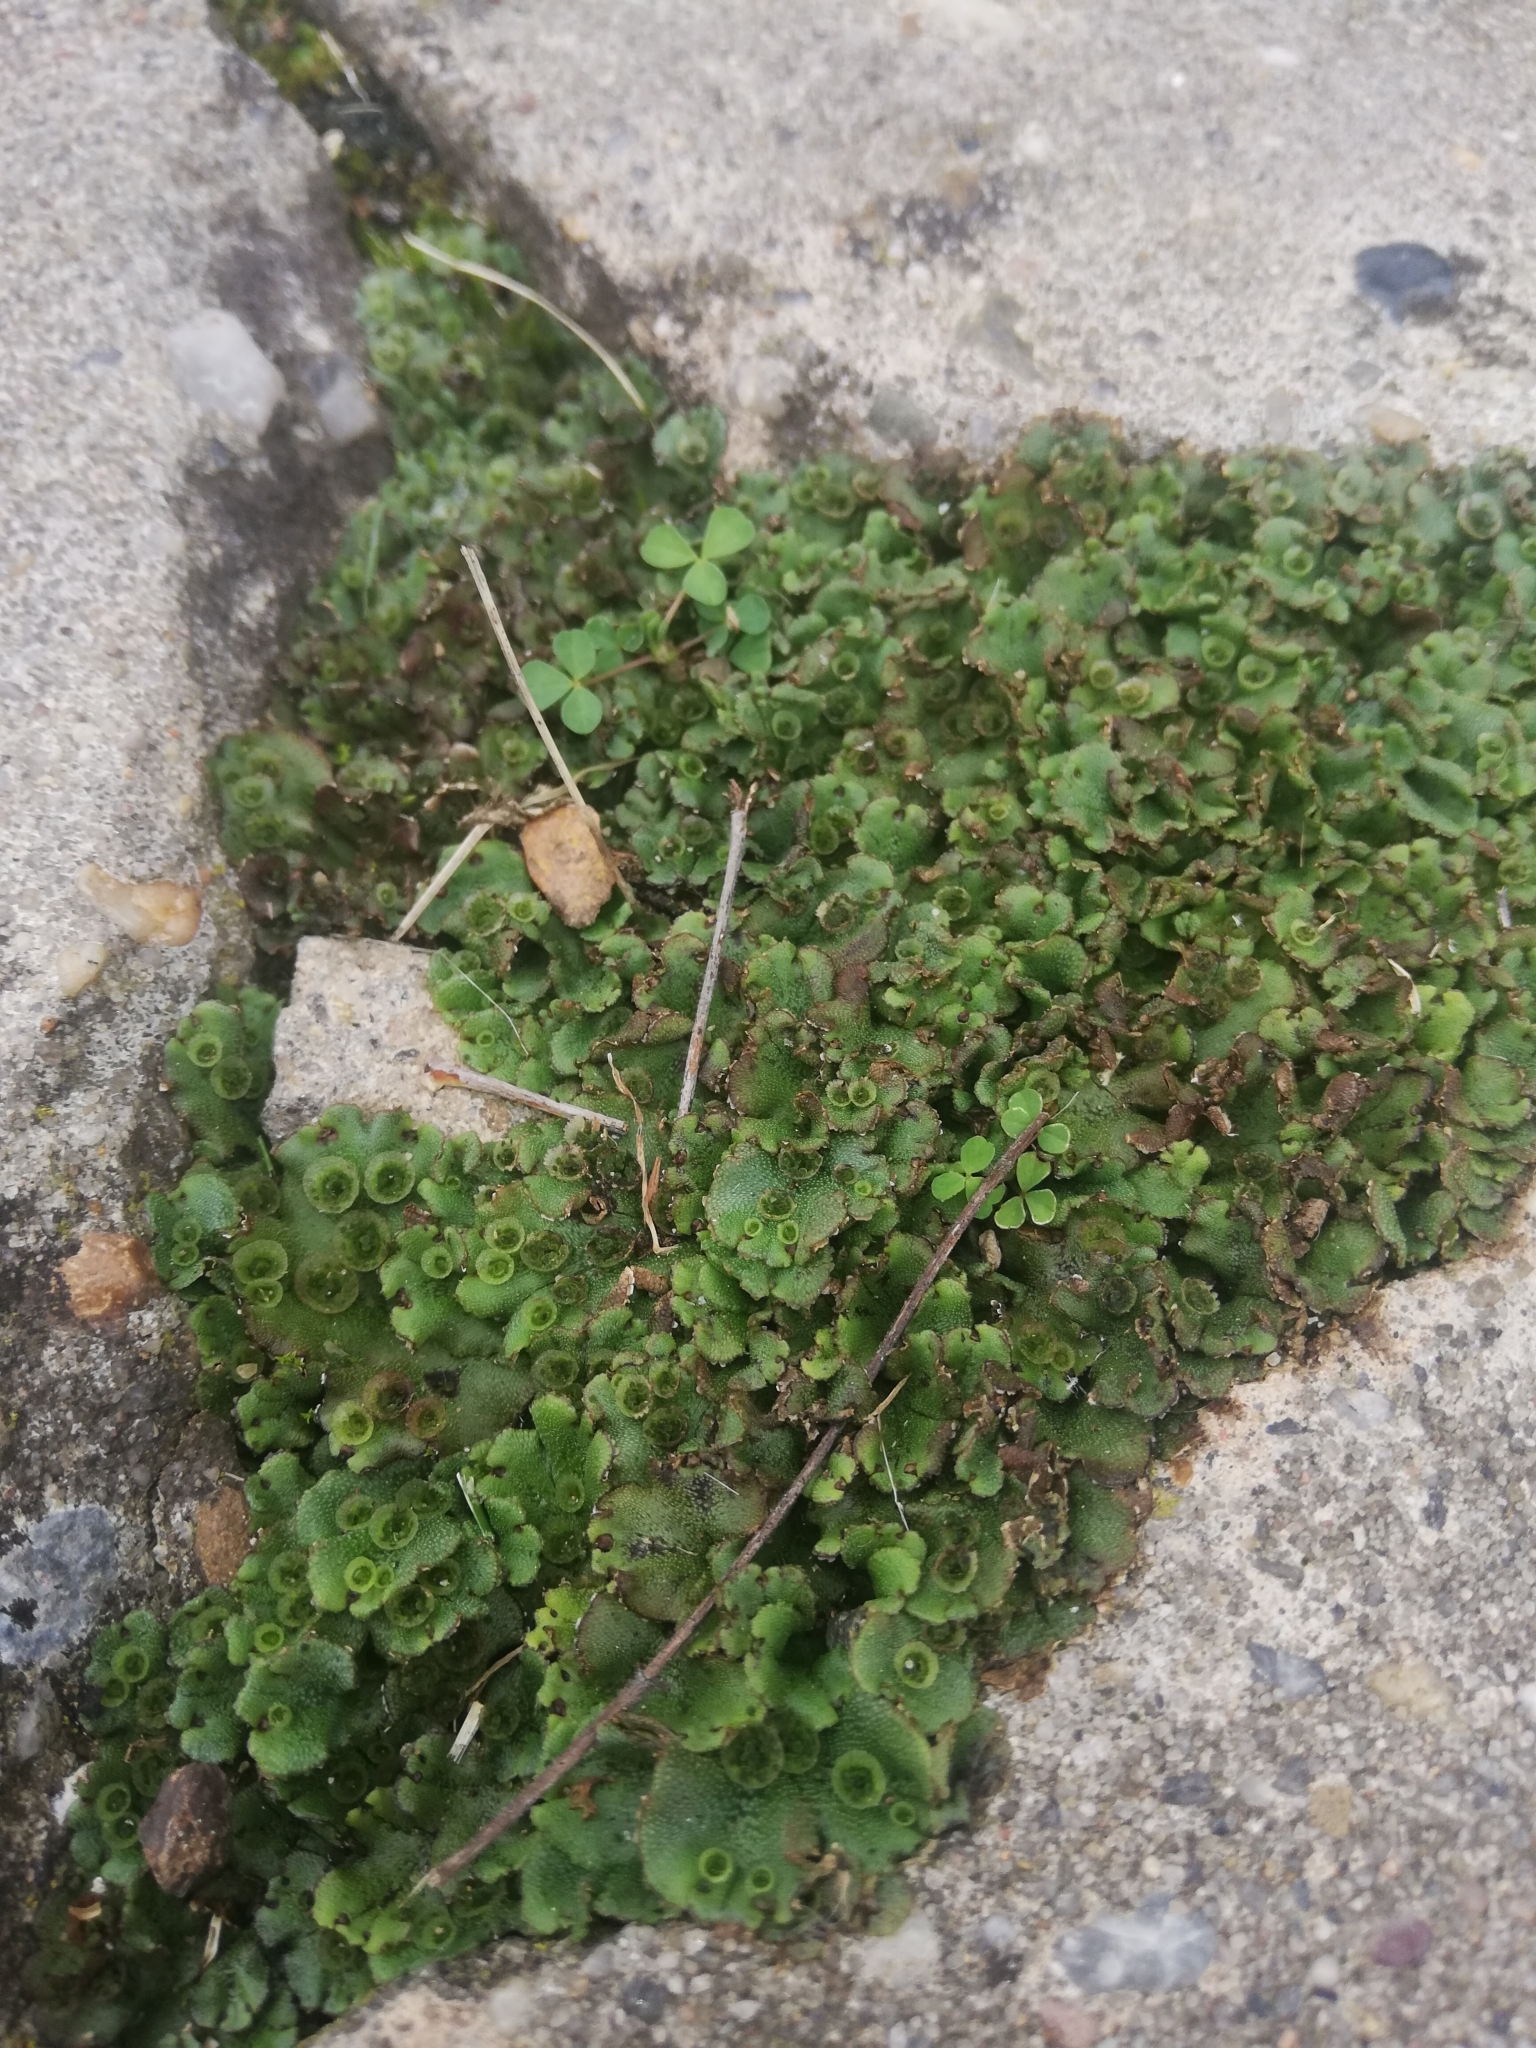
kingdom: Plantae
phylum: Marchantiophyta
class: Marchantiopsida
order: Marchantiales
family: Marchantiaceae
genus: Marchantia
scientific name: Marchantia polymorpha
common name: Common liverwort
